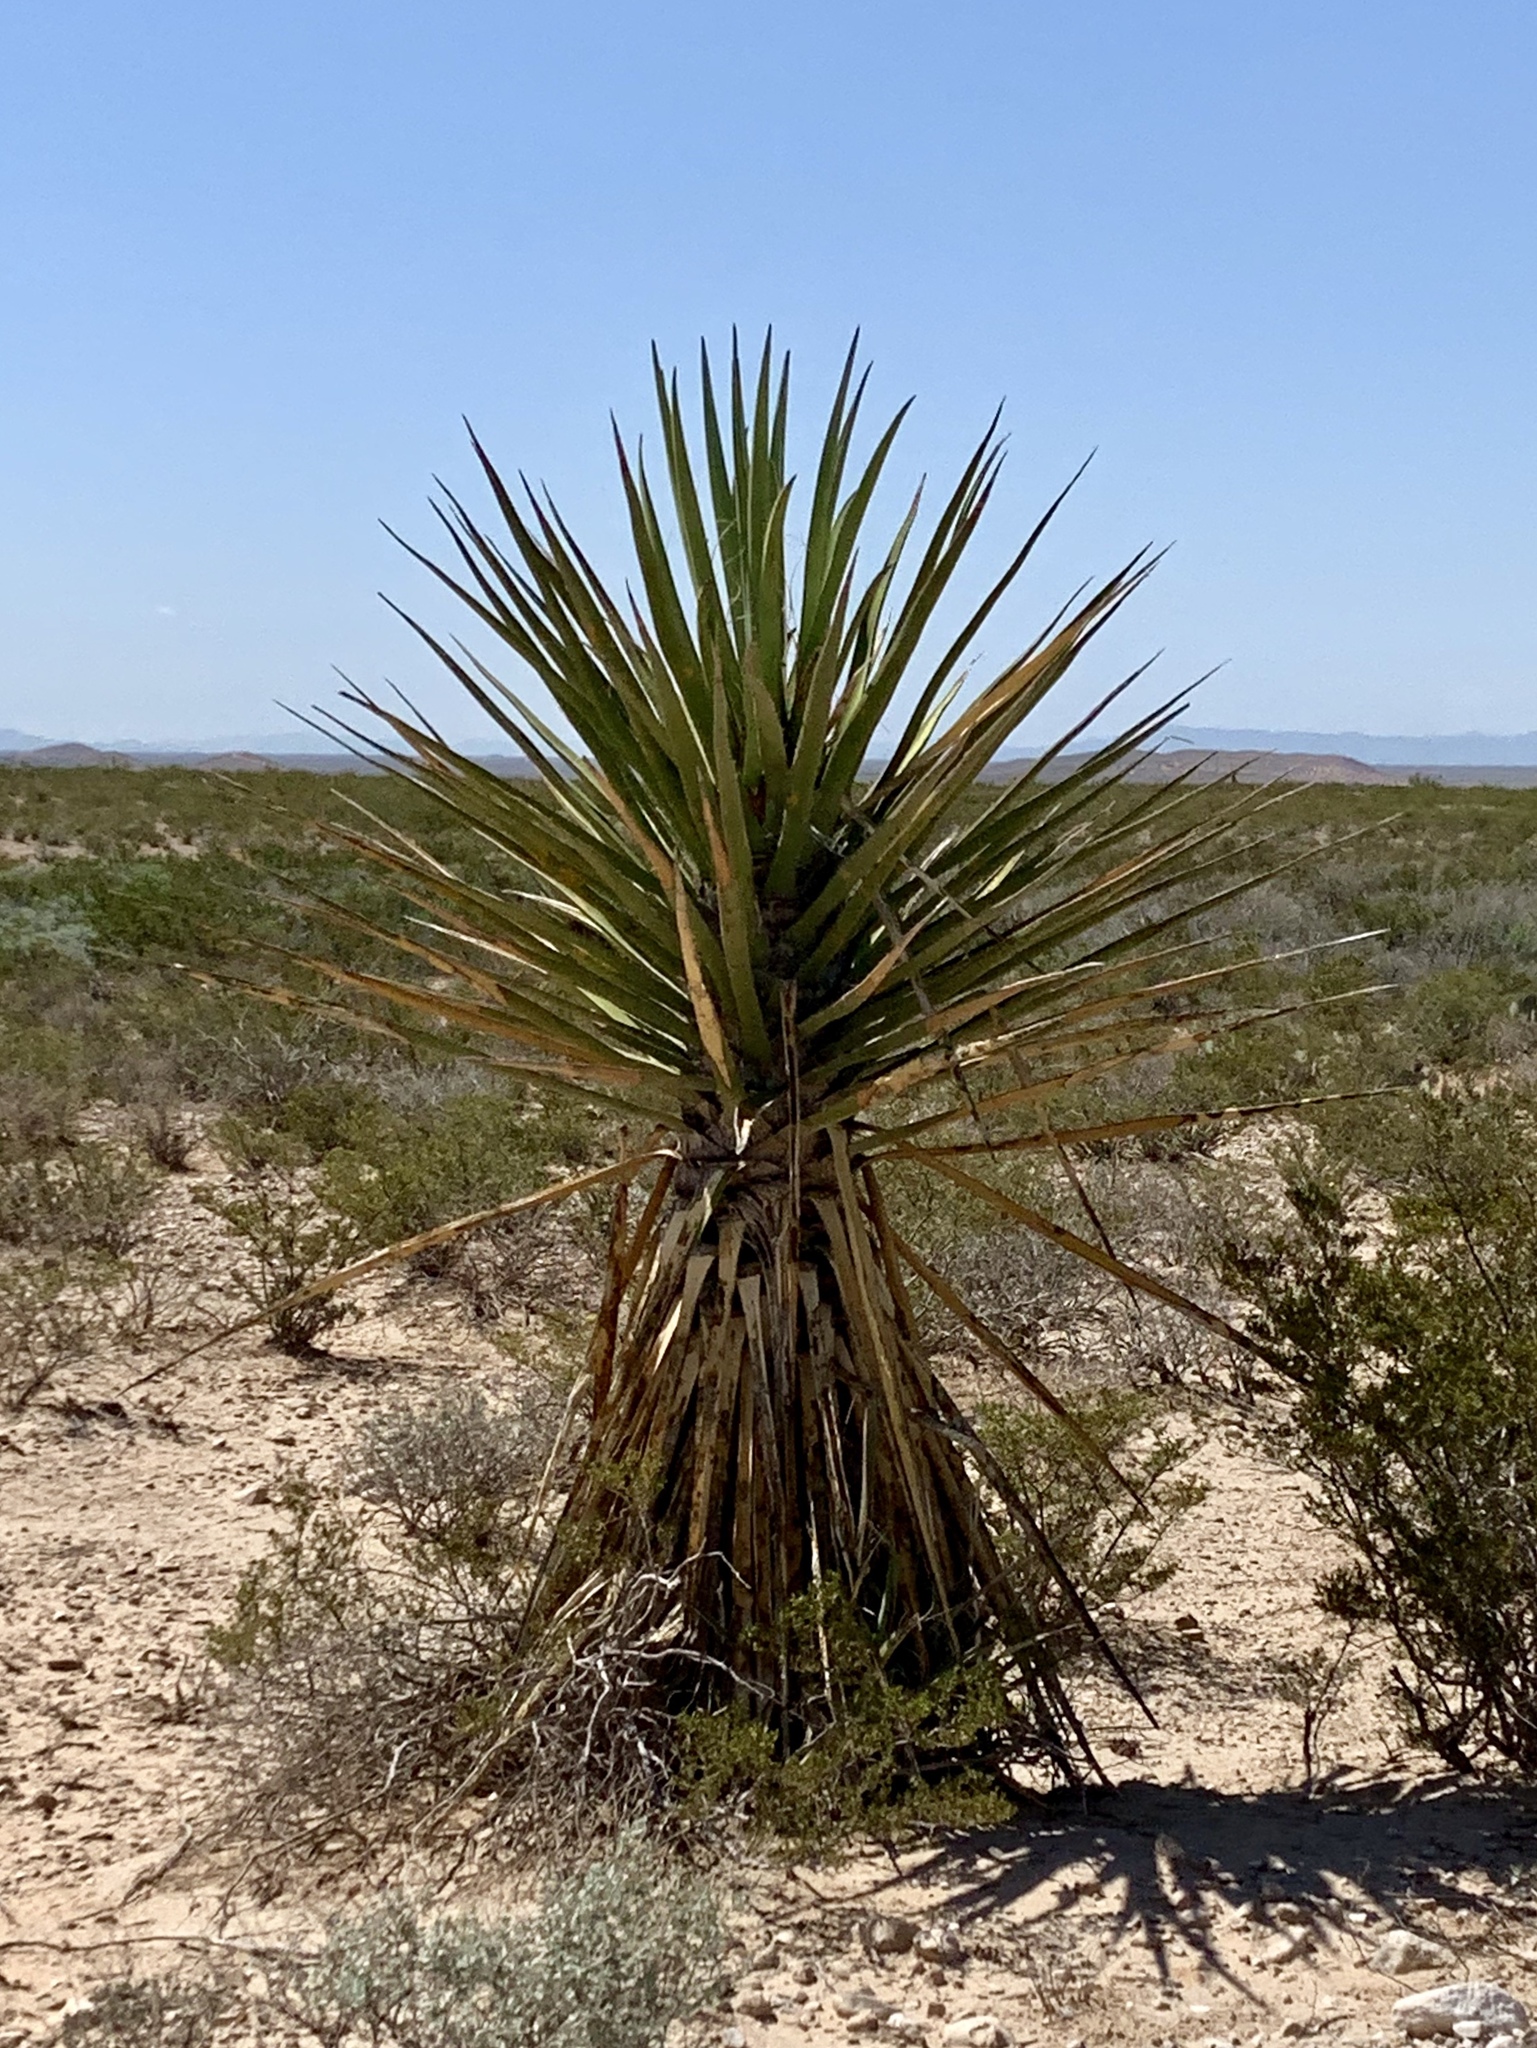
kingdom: Plantae
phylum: Tracheophyta
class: Liliopsida
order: Asparagales
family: Asparagaceae
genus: Yucca
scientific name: Yucca treculiana
